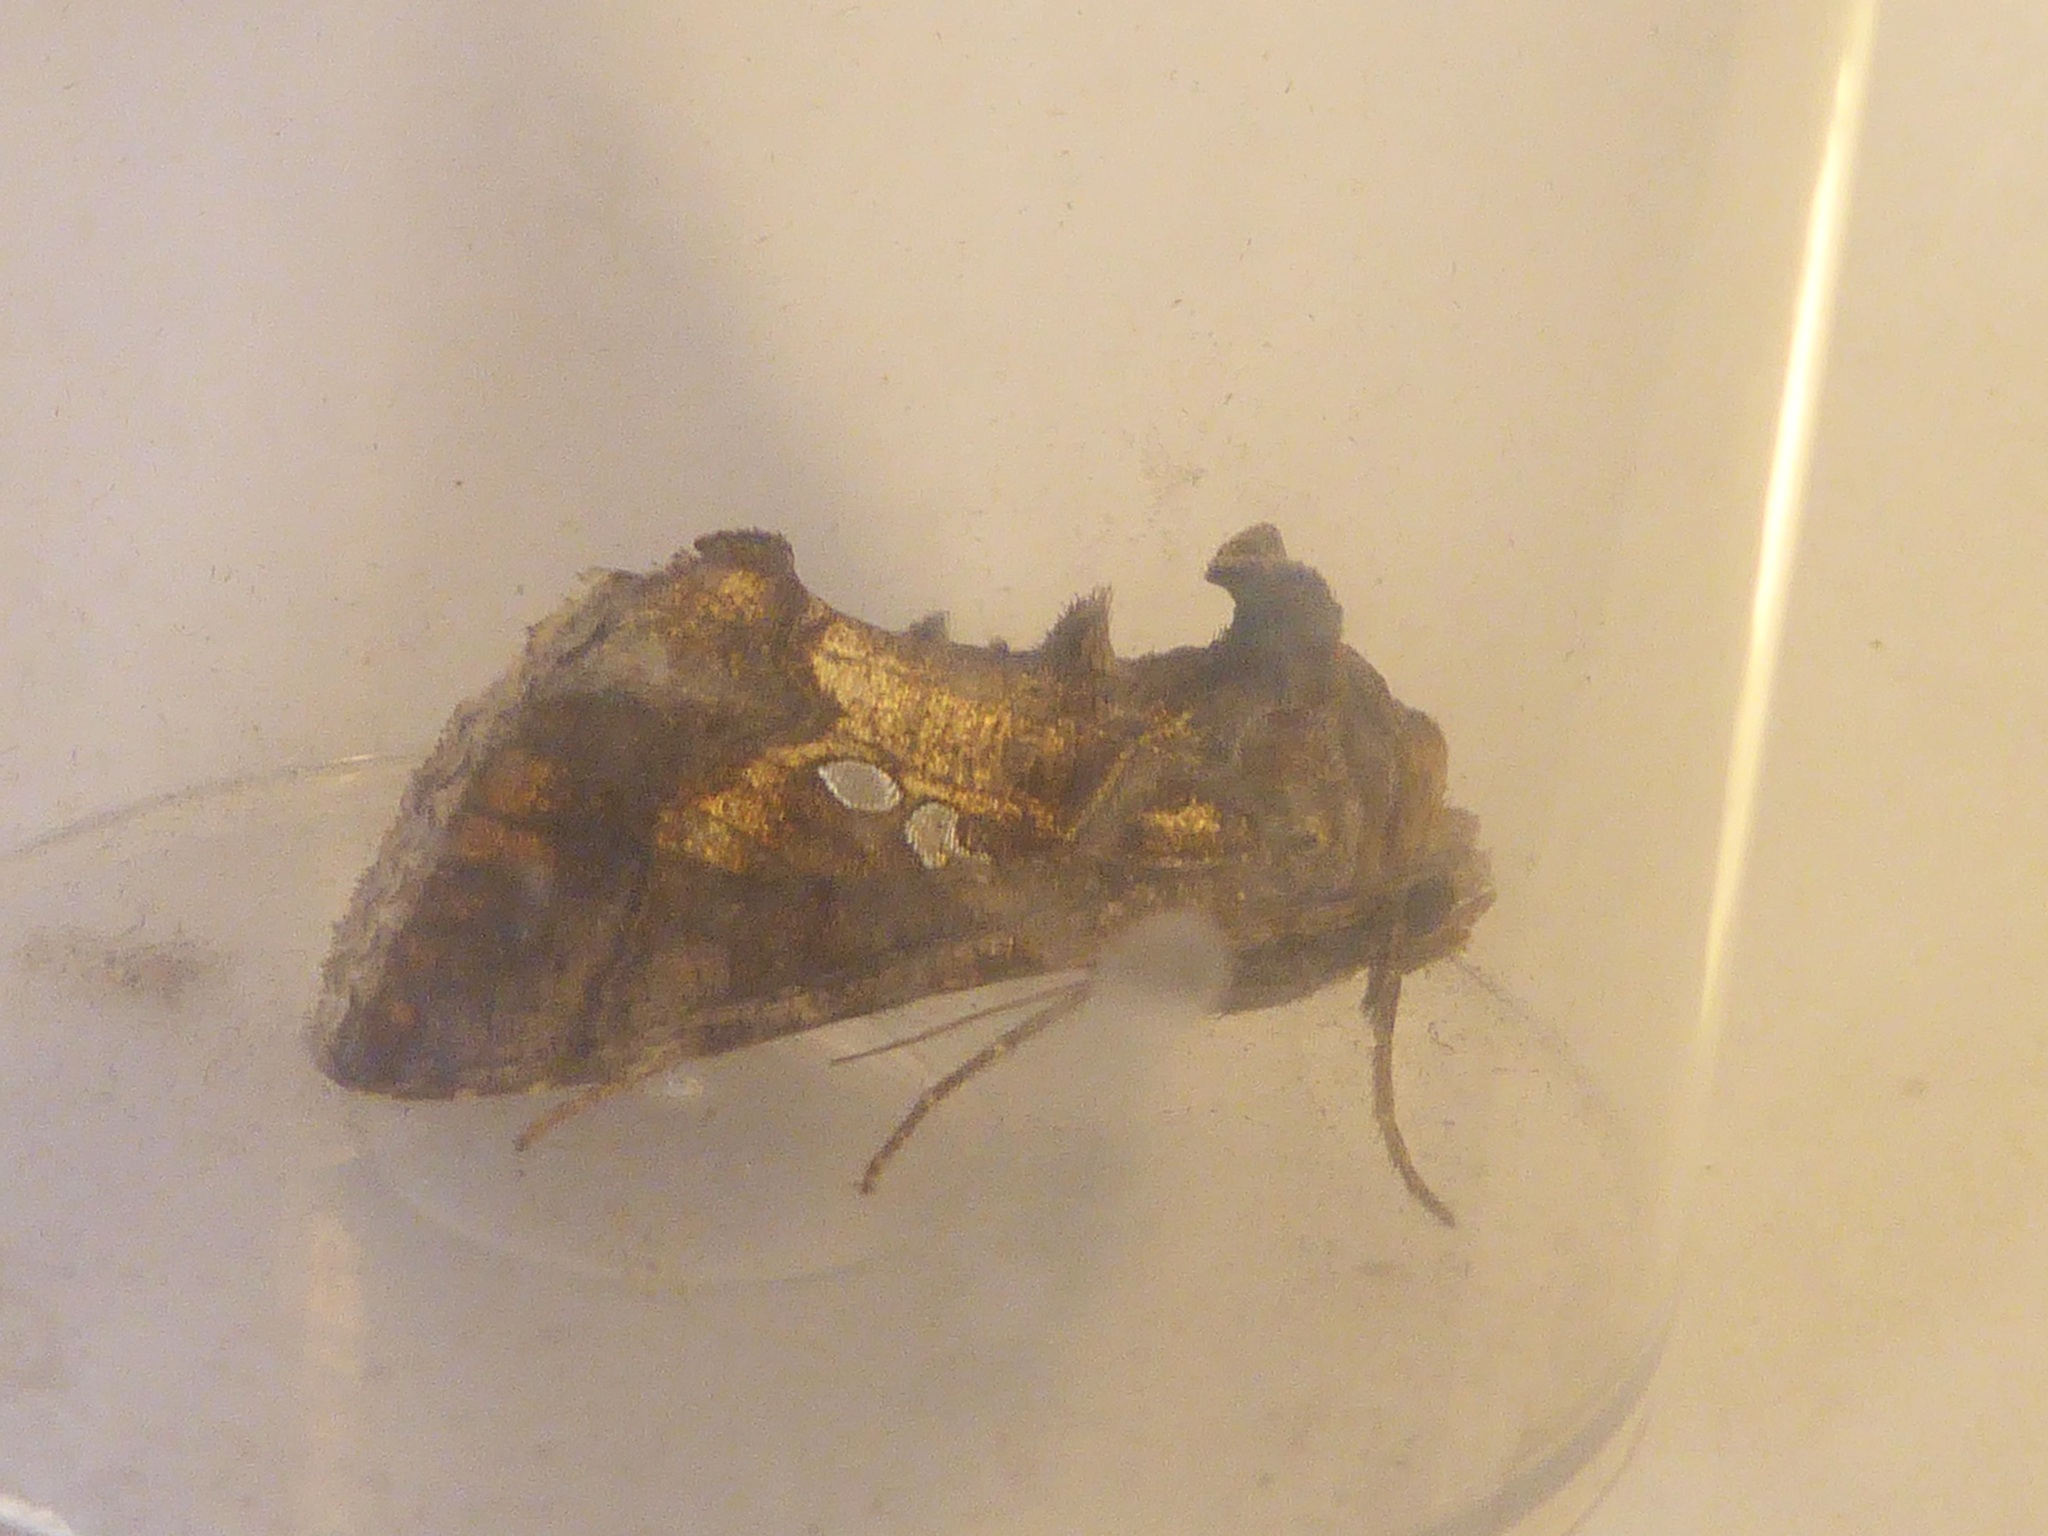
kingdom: Animalia
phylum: Arthropoda
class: Insecta
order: Lepidoptera
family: Noctuidae
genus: Chrysodeixis
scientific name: Chrysodeixis chalcites
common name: Golden twin-spot
